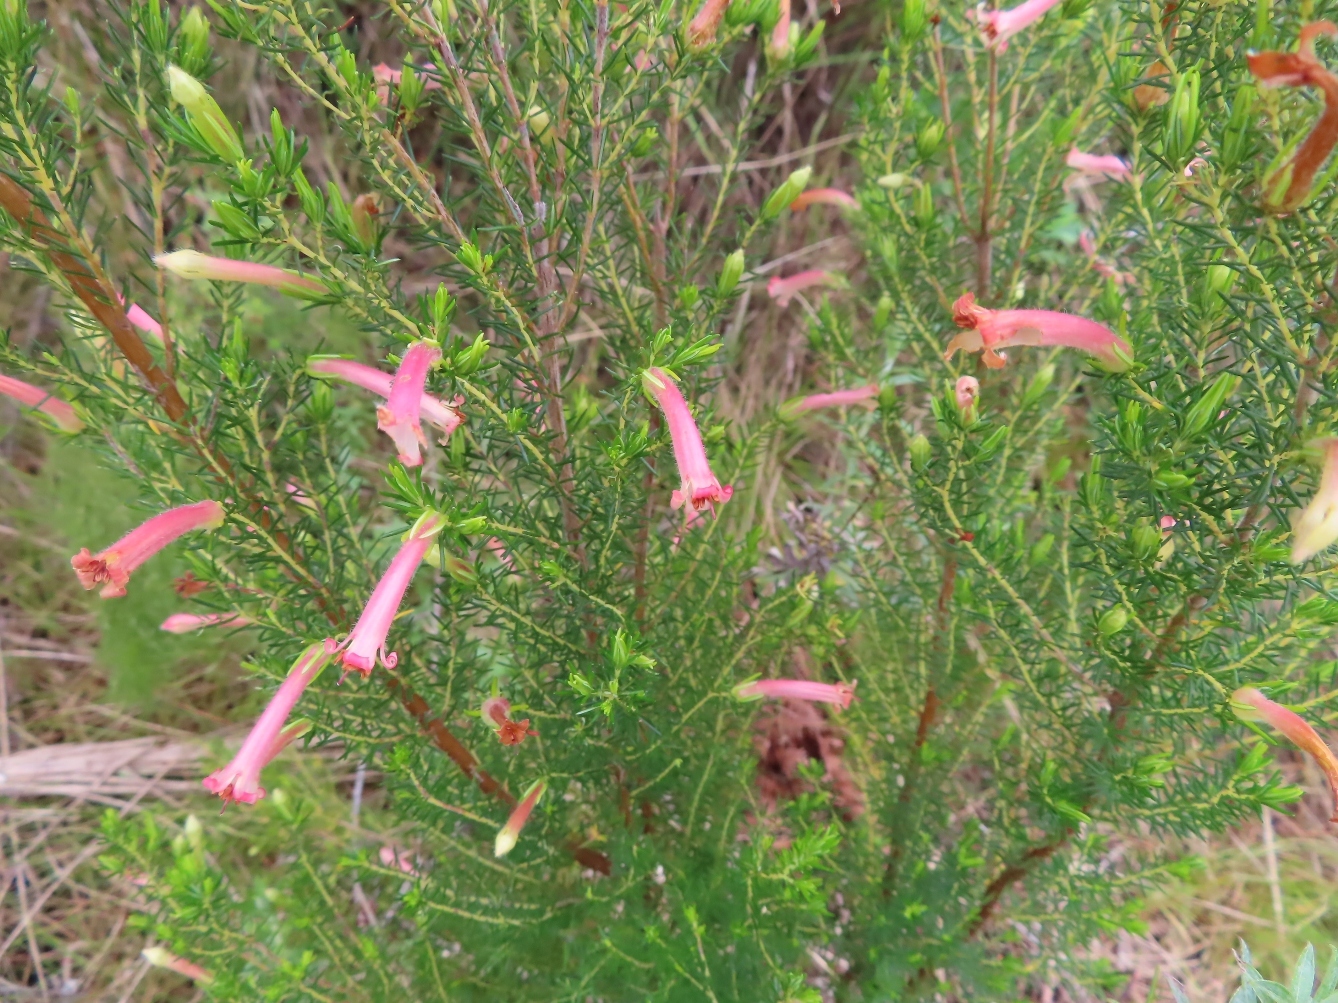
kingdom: Plantae
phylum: Tracheophyta
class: Magnoliopsida
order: Ericales
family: Ericaceae
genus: Erica
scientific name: Erica curviflora
